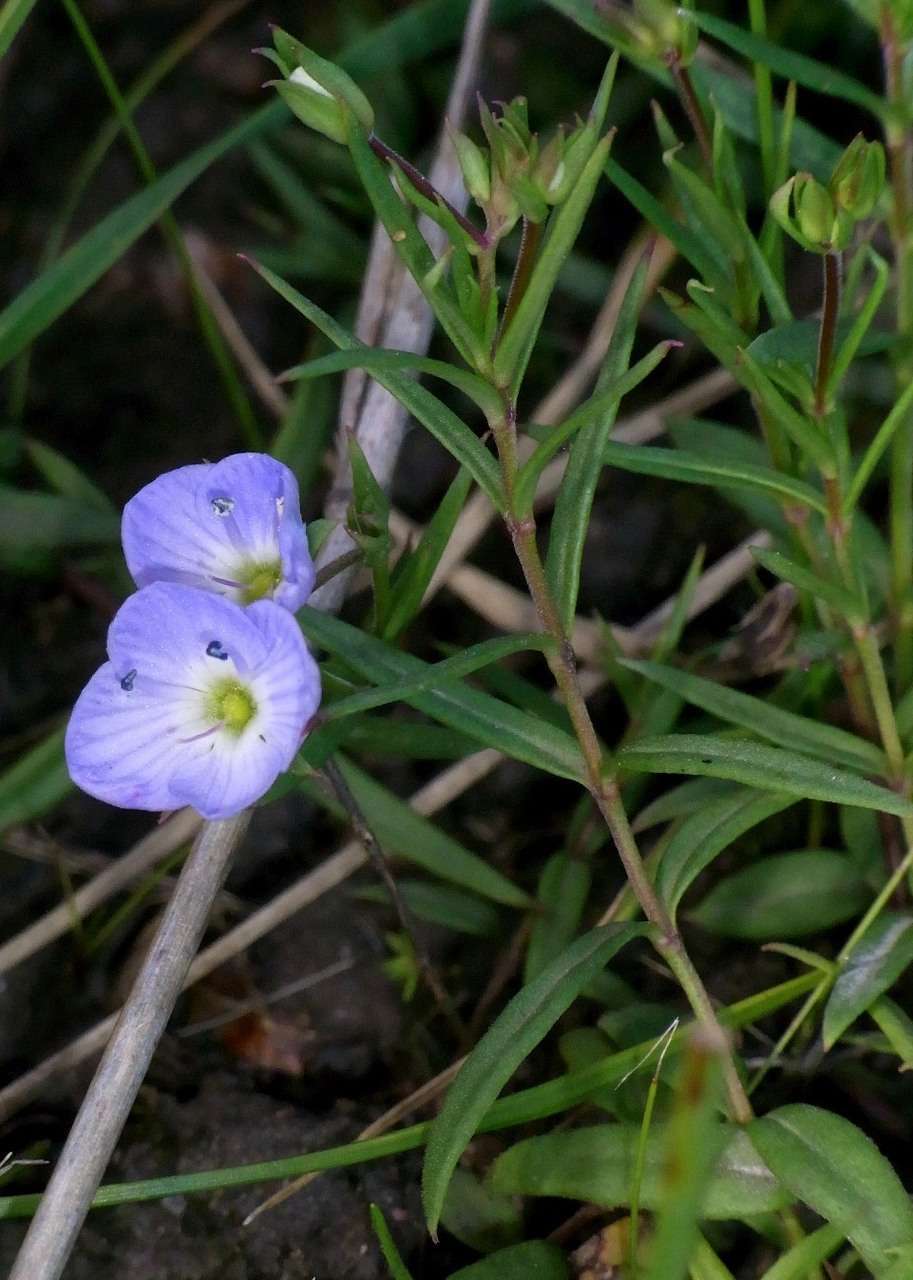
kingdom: Plantae
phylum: Tracheophyta
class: Magnoliopsida
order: Lamiales
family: Plantaginaceae
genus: Veronica
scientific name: Veronica gracilis
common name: Slender speedwell
